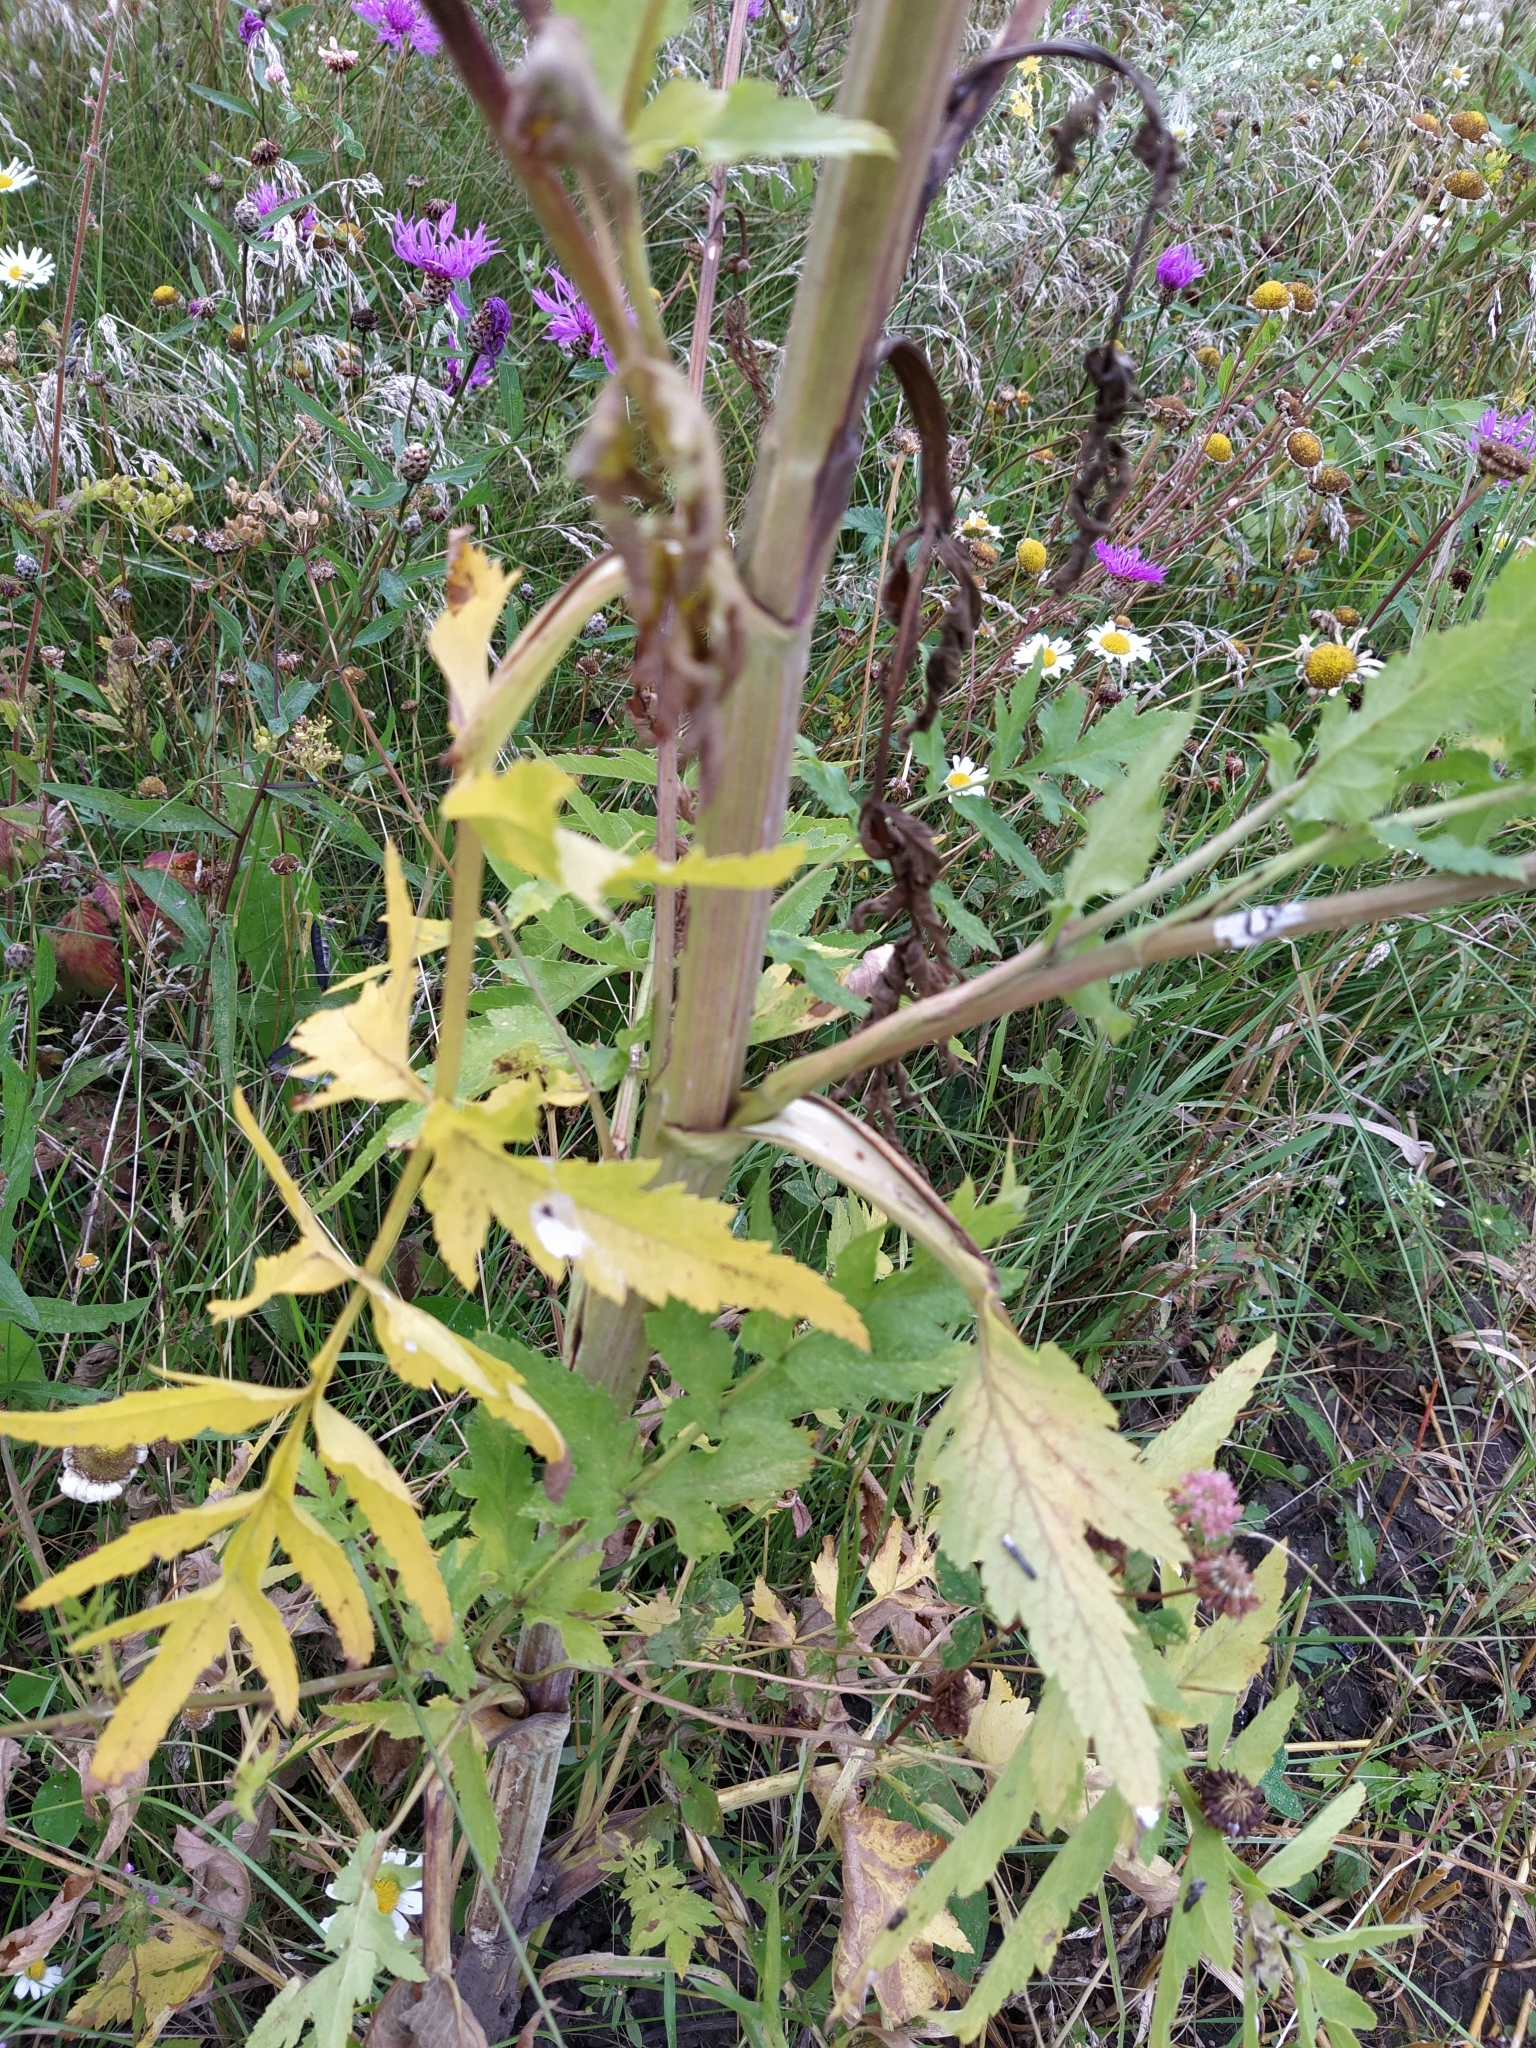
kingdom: Plantae
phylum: Tracheophyta
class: Magnoliopsida
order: Apiales
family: Apiaceae
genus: Pastinaca
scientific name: Pastinaca sativa
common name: Wild parsnip
